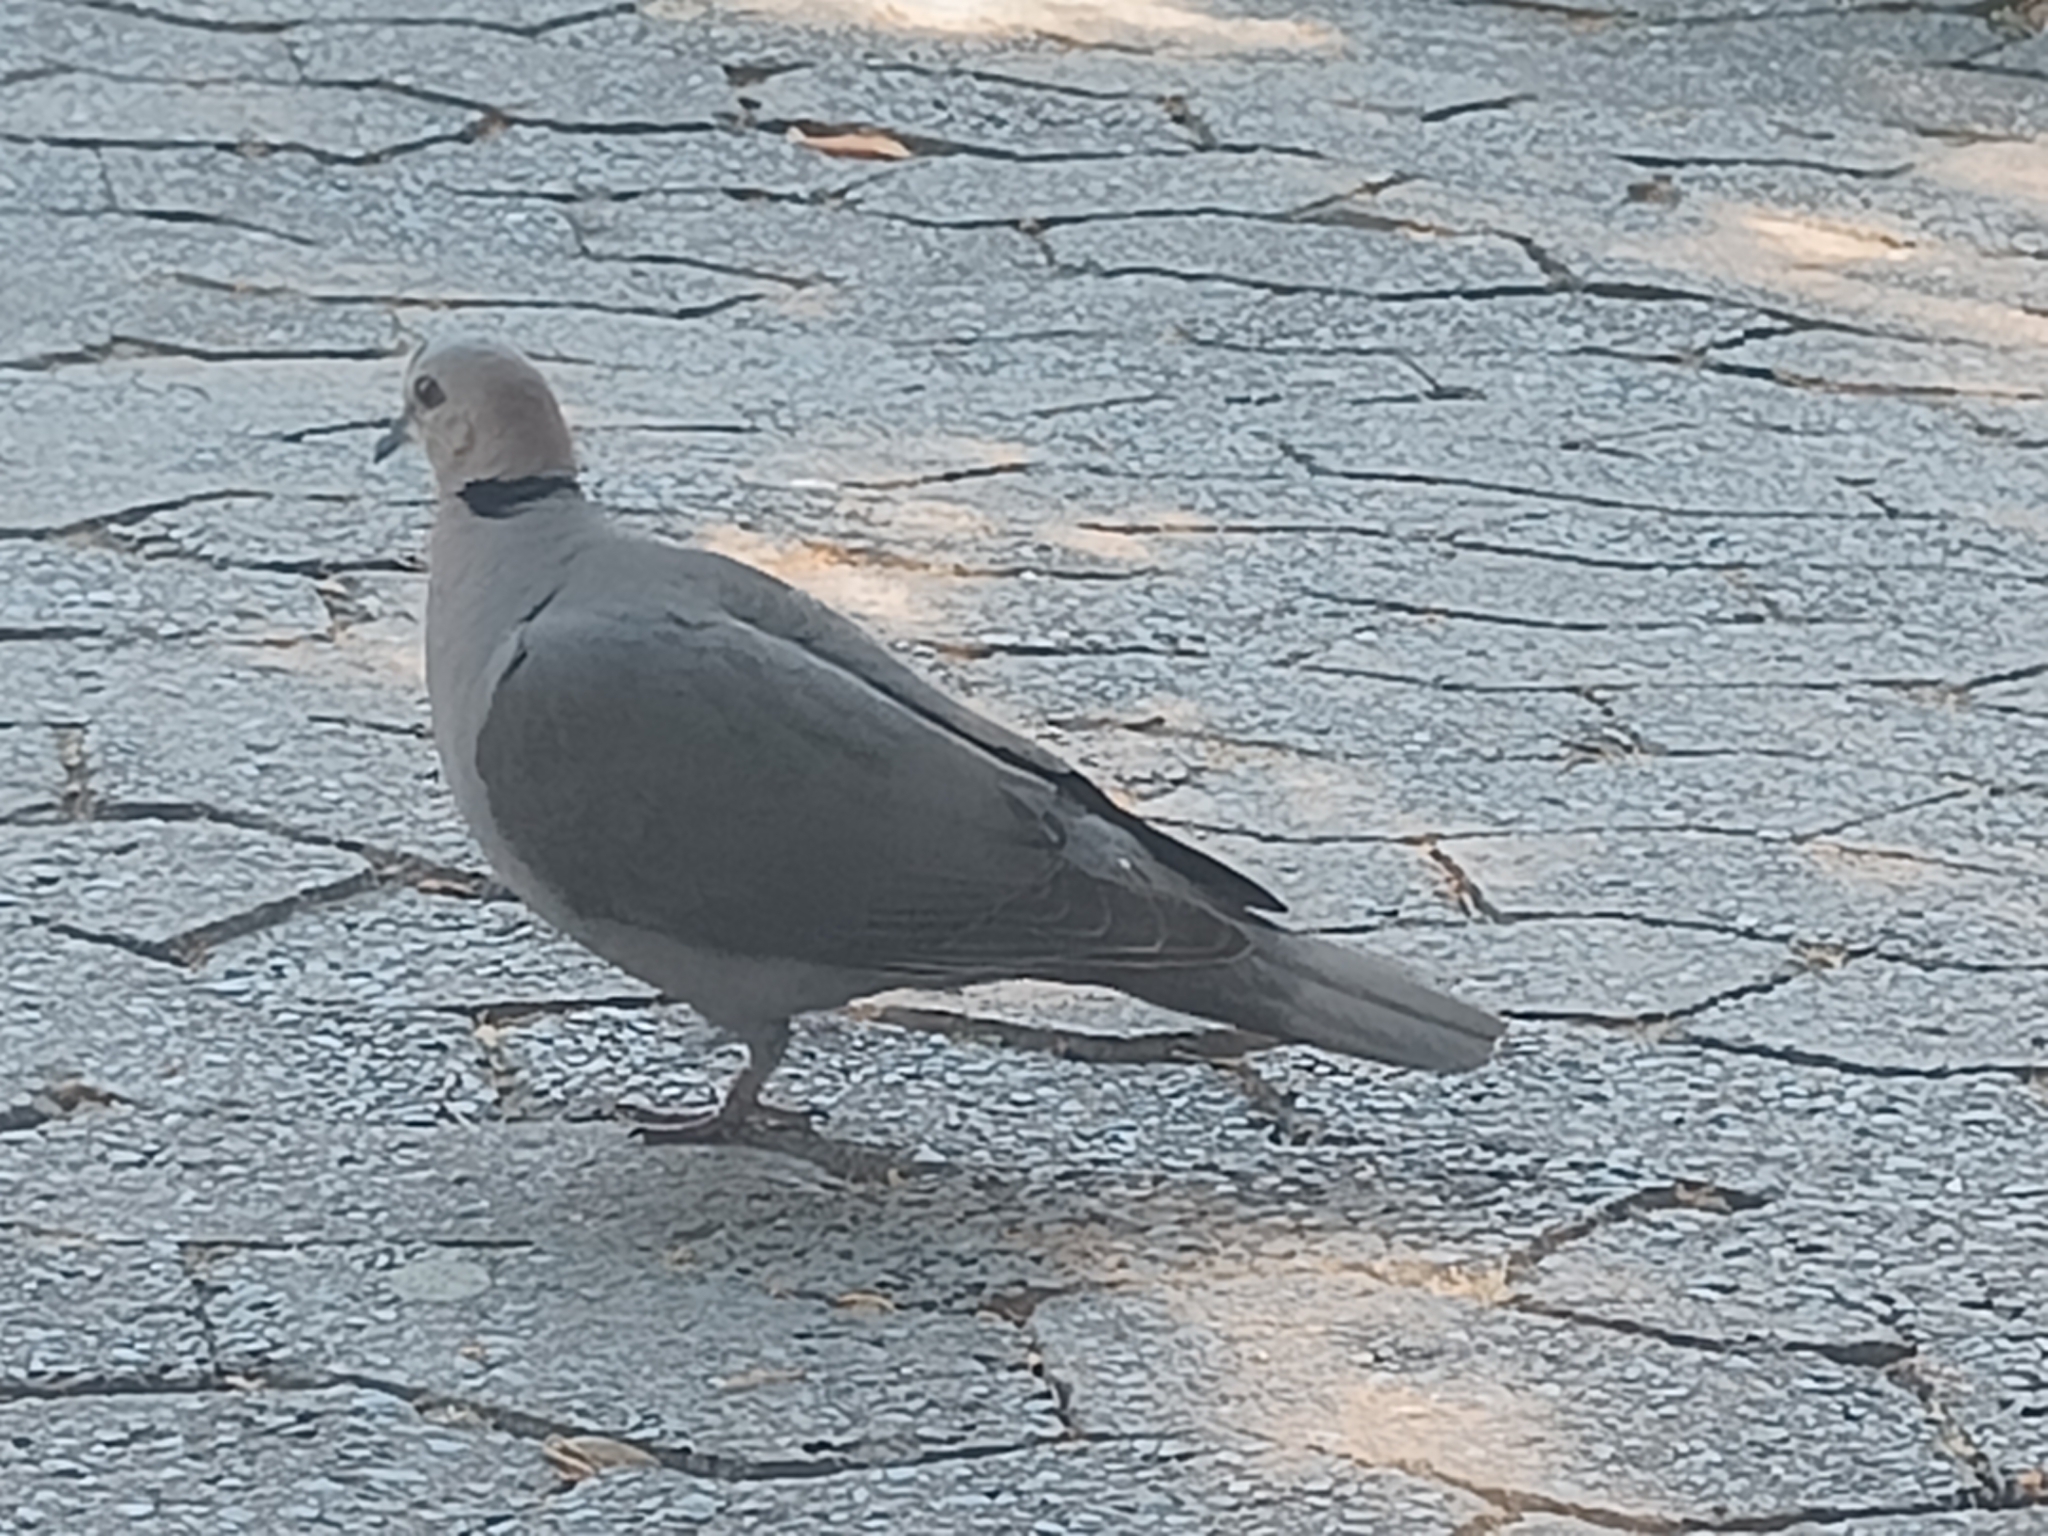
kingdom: Animalia
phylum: Chordata
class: Aves
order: Columbiformes
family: Columbidae
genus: Streptopelia
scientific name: Streptopelia semitorquata
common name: Red-eyed dove
